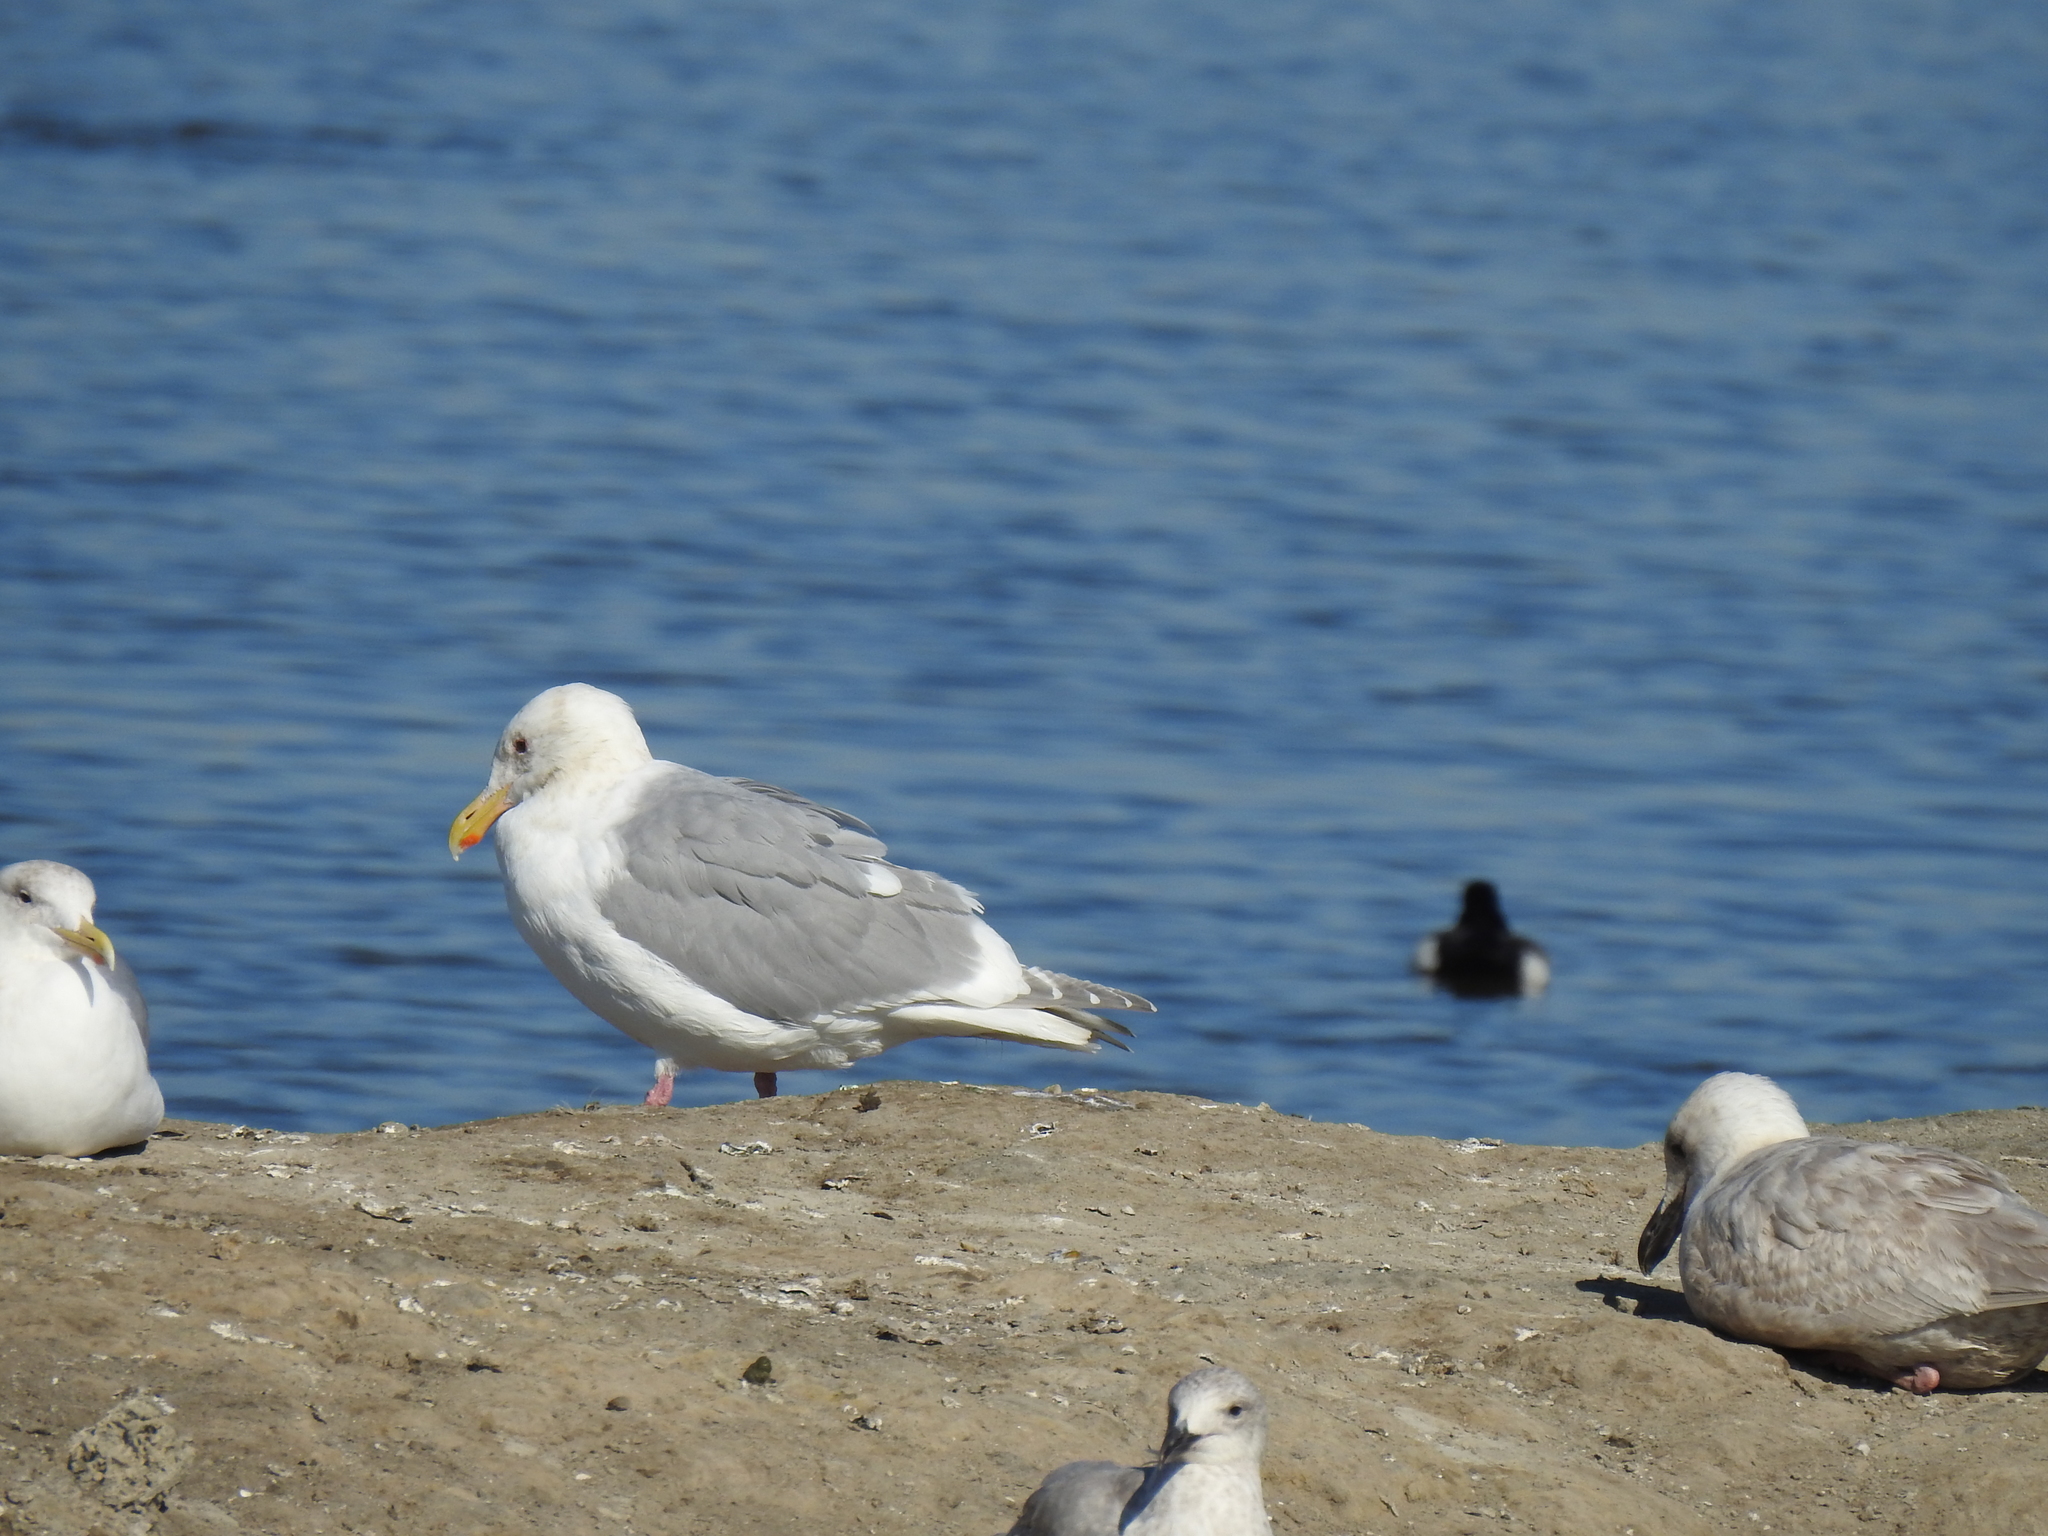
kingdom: Animalia
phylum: Chordata
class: Aves
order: Charadriiformes
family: Laridae
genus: Larus
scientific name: Larus glaucescens
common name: Glaucous-winged gull
